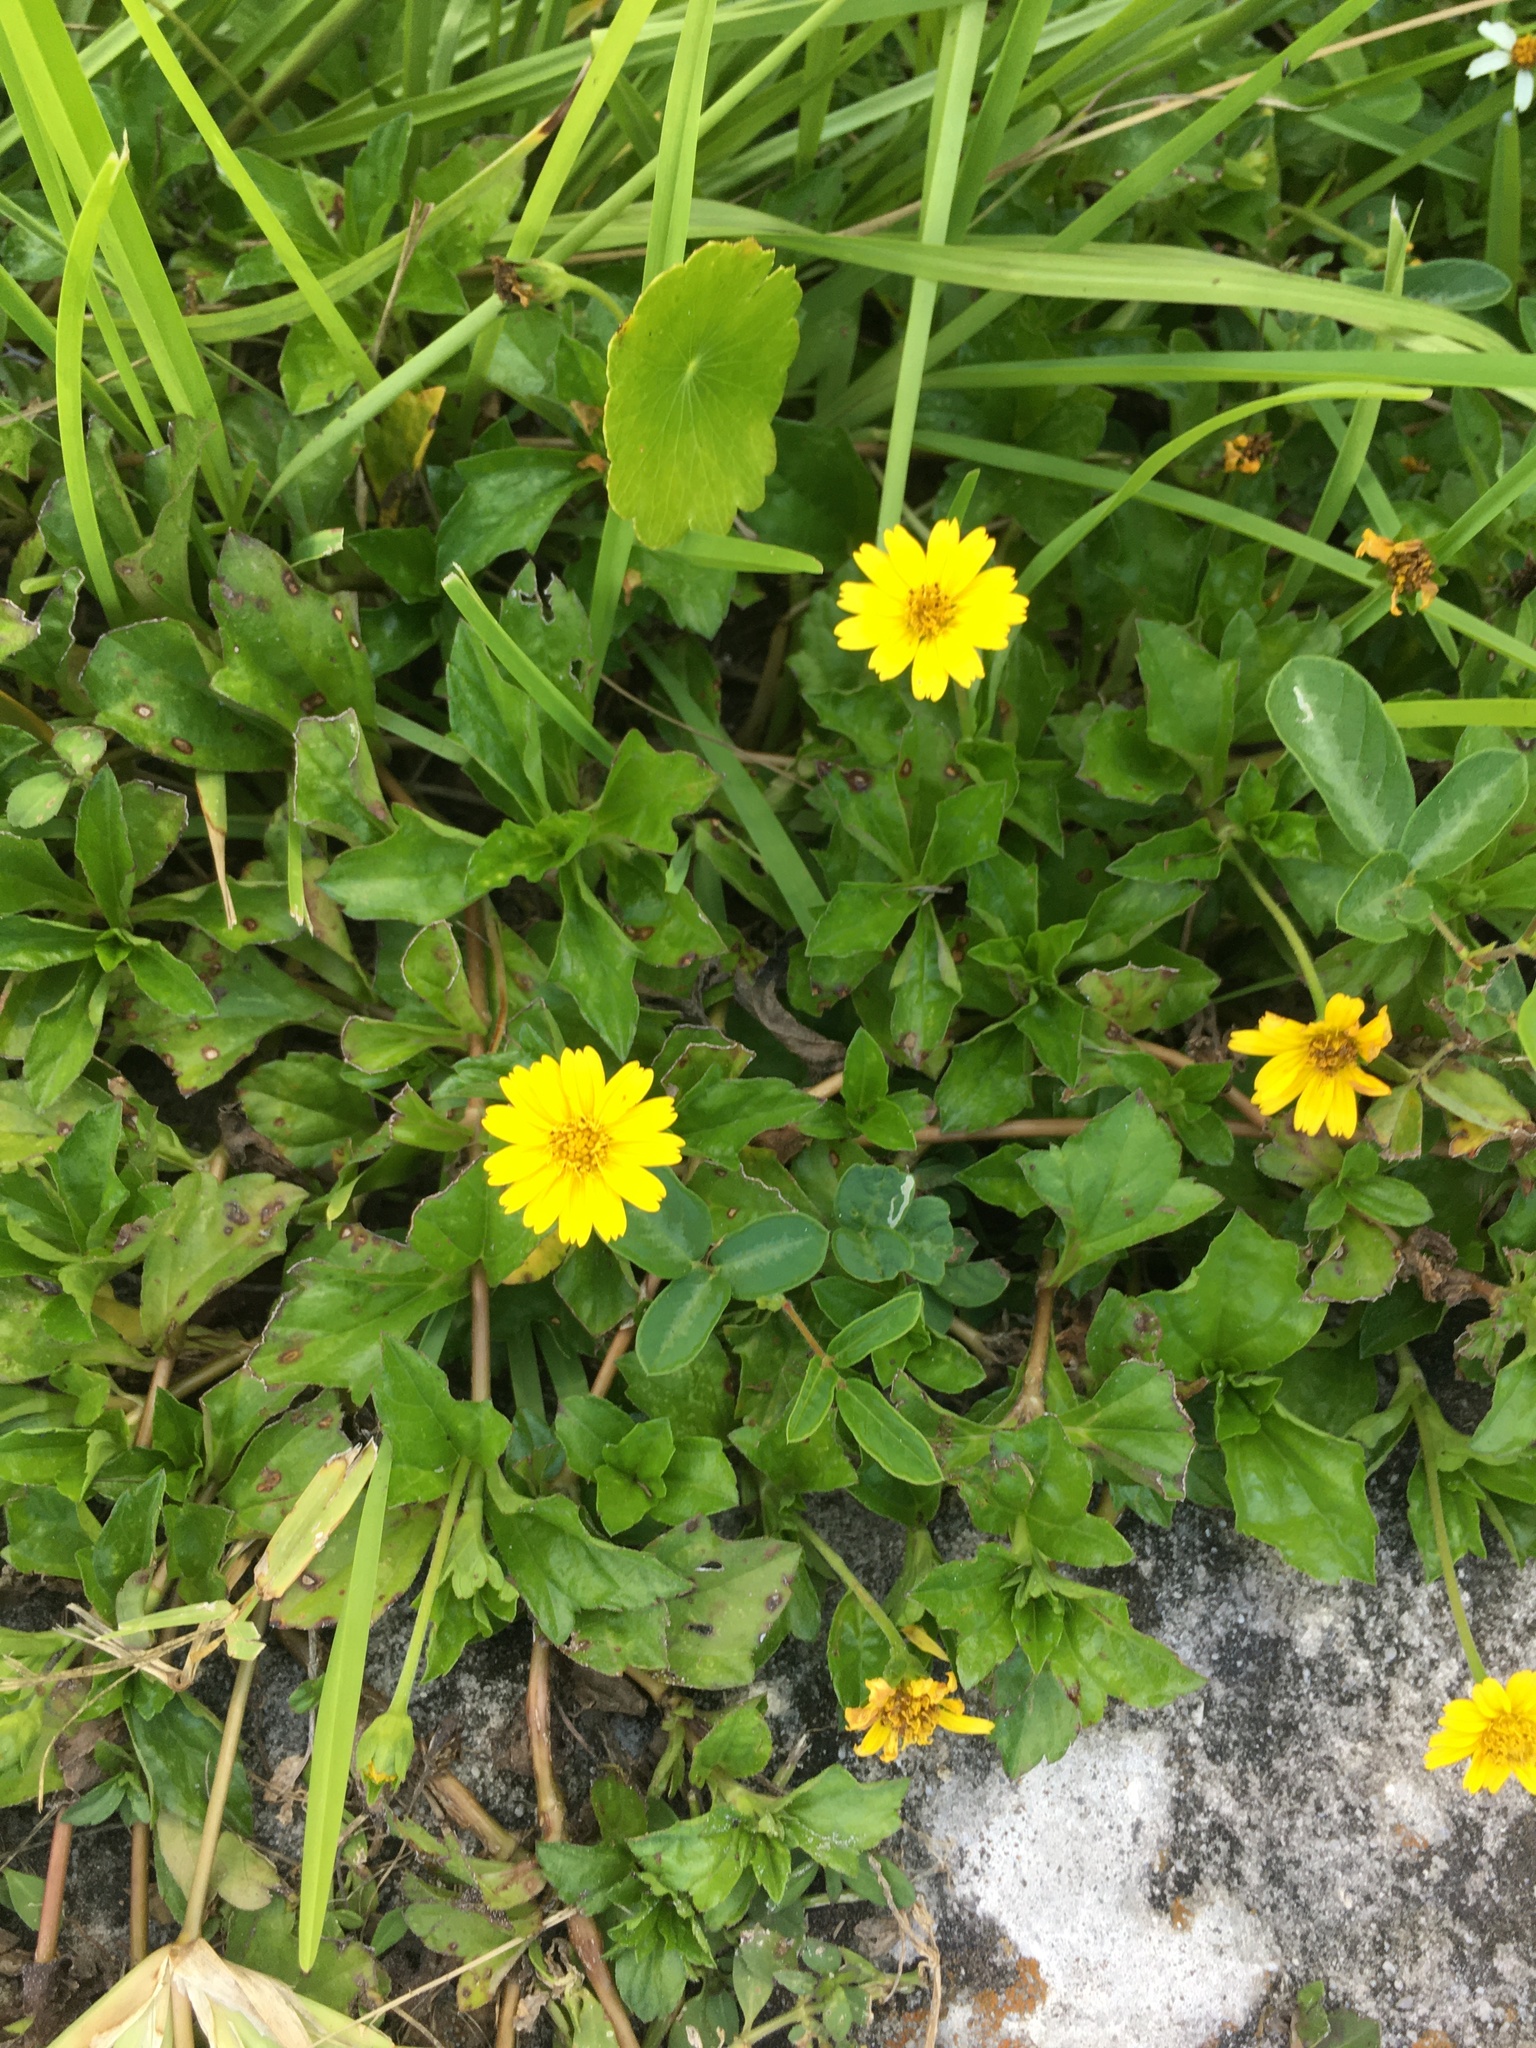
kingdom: Plantae
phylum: Tracheophyta
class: Magnoliopsida
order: Asterales
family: Asteraceae
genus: Sphagneticola
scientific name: Sphagneticola trilobata
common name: Bay biscayne creeping-oxeye
